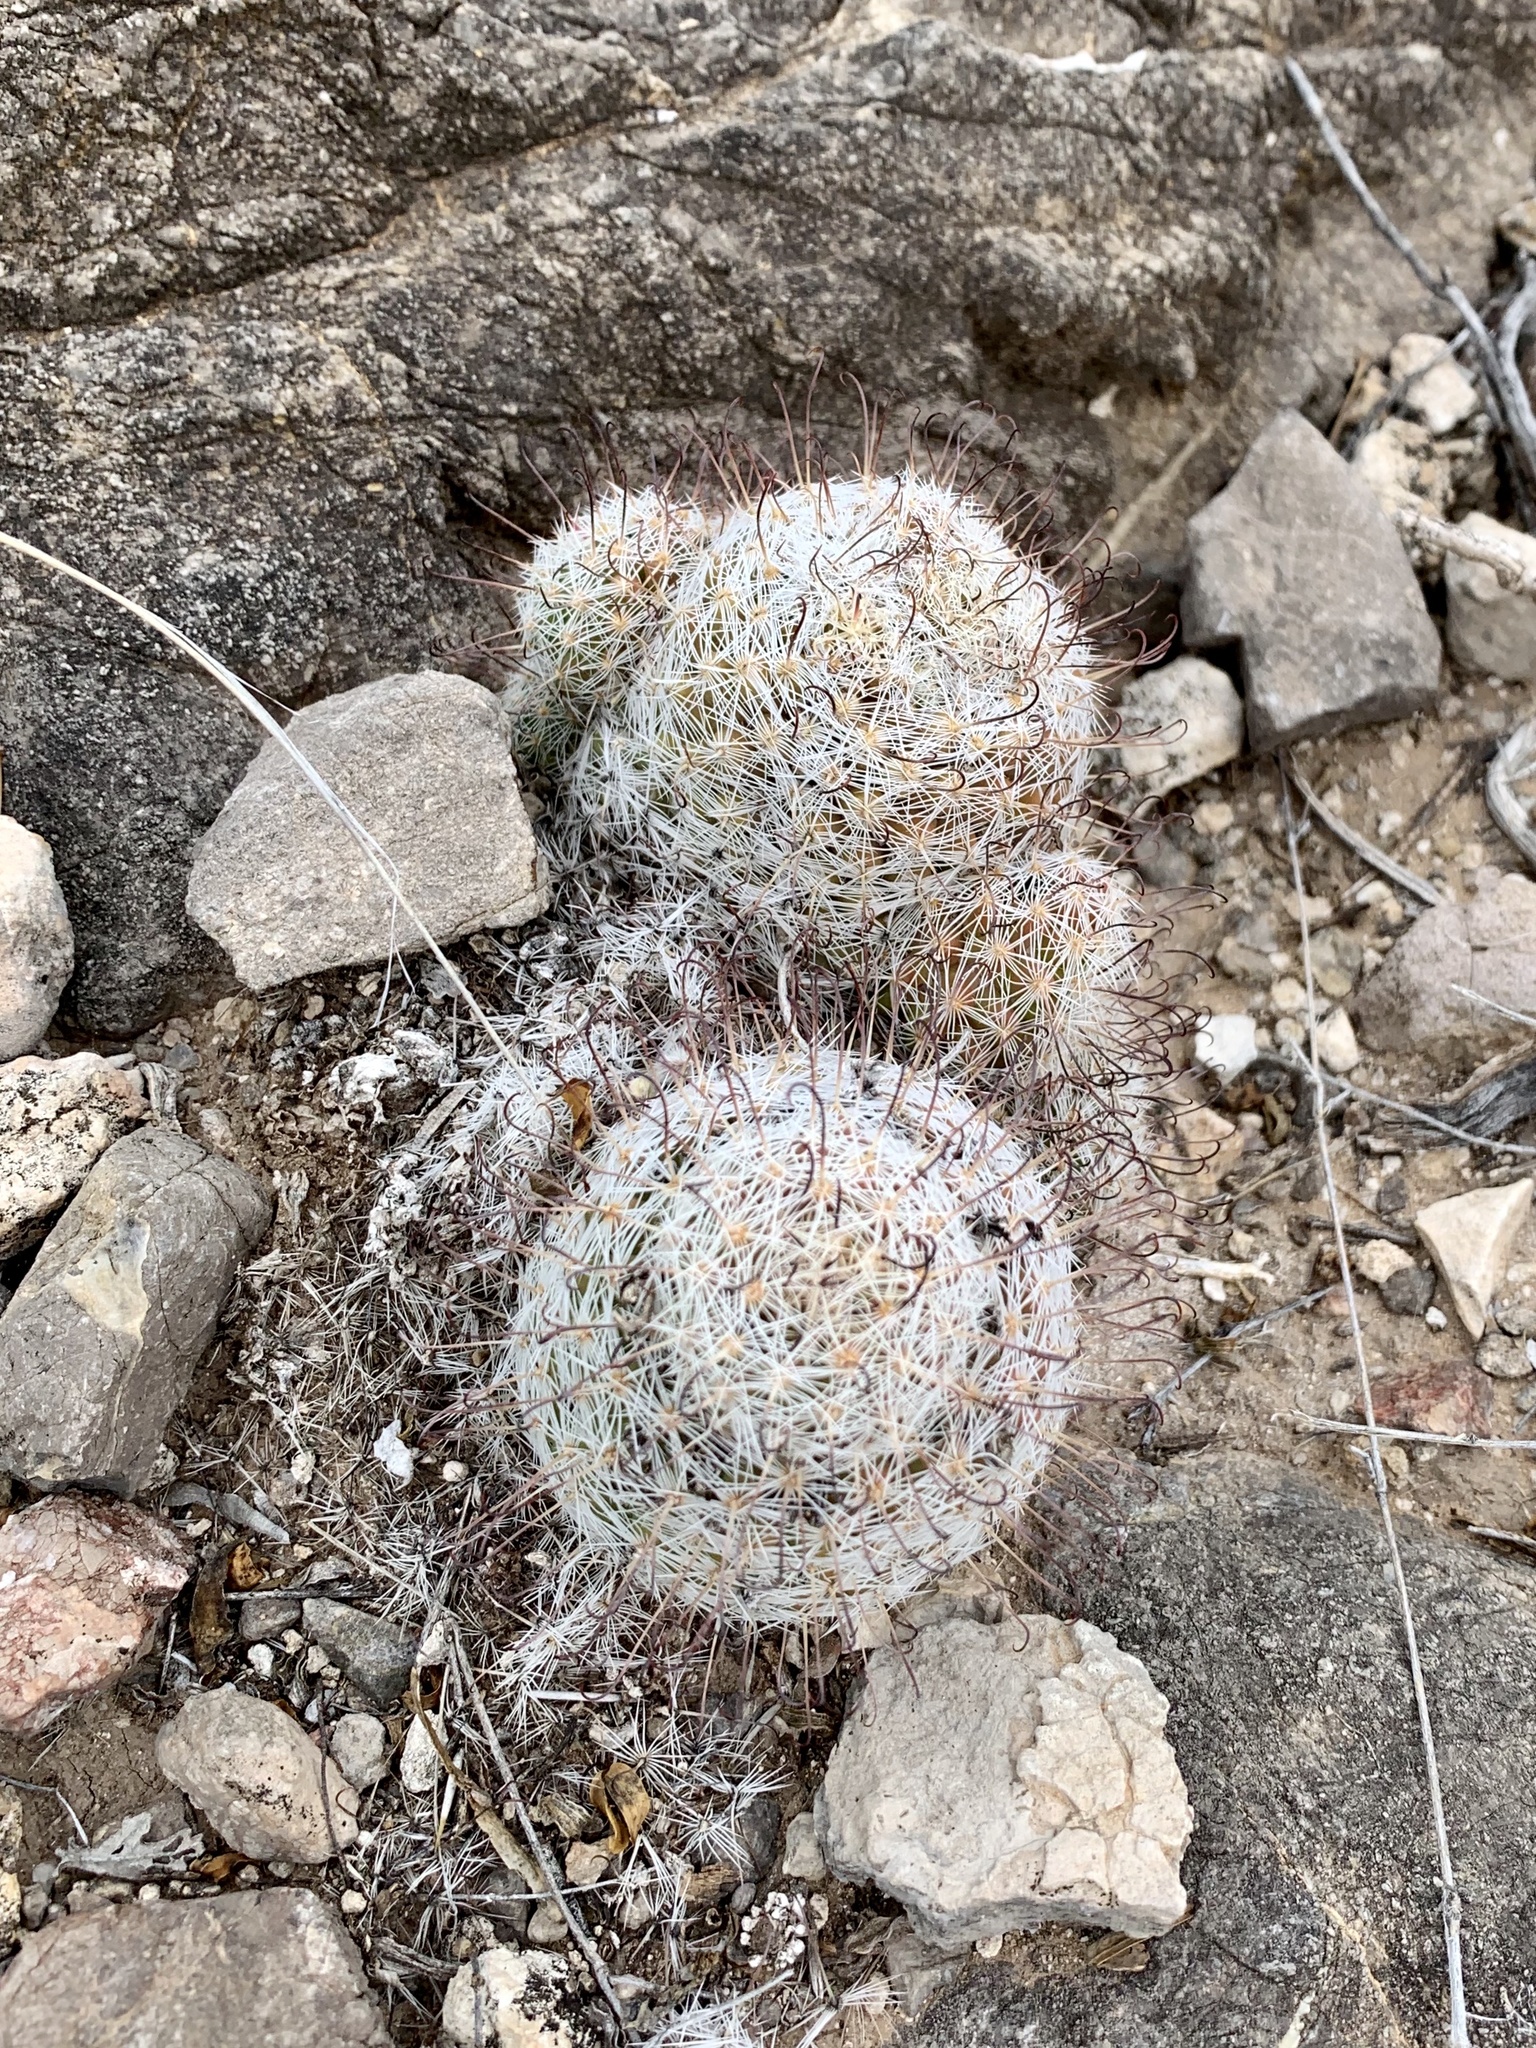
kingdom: Plantae
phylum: Tracheophyta
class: Magnoliopsida
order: Caryophyllales
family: Cactaceae
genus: Cochemiea
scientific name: Cochemiea grahamii
